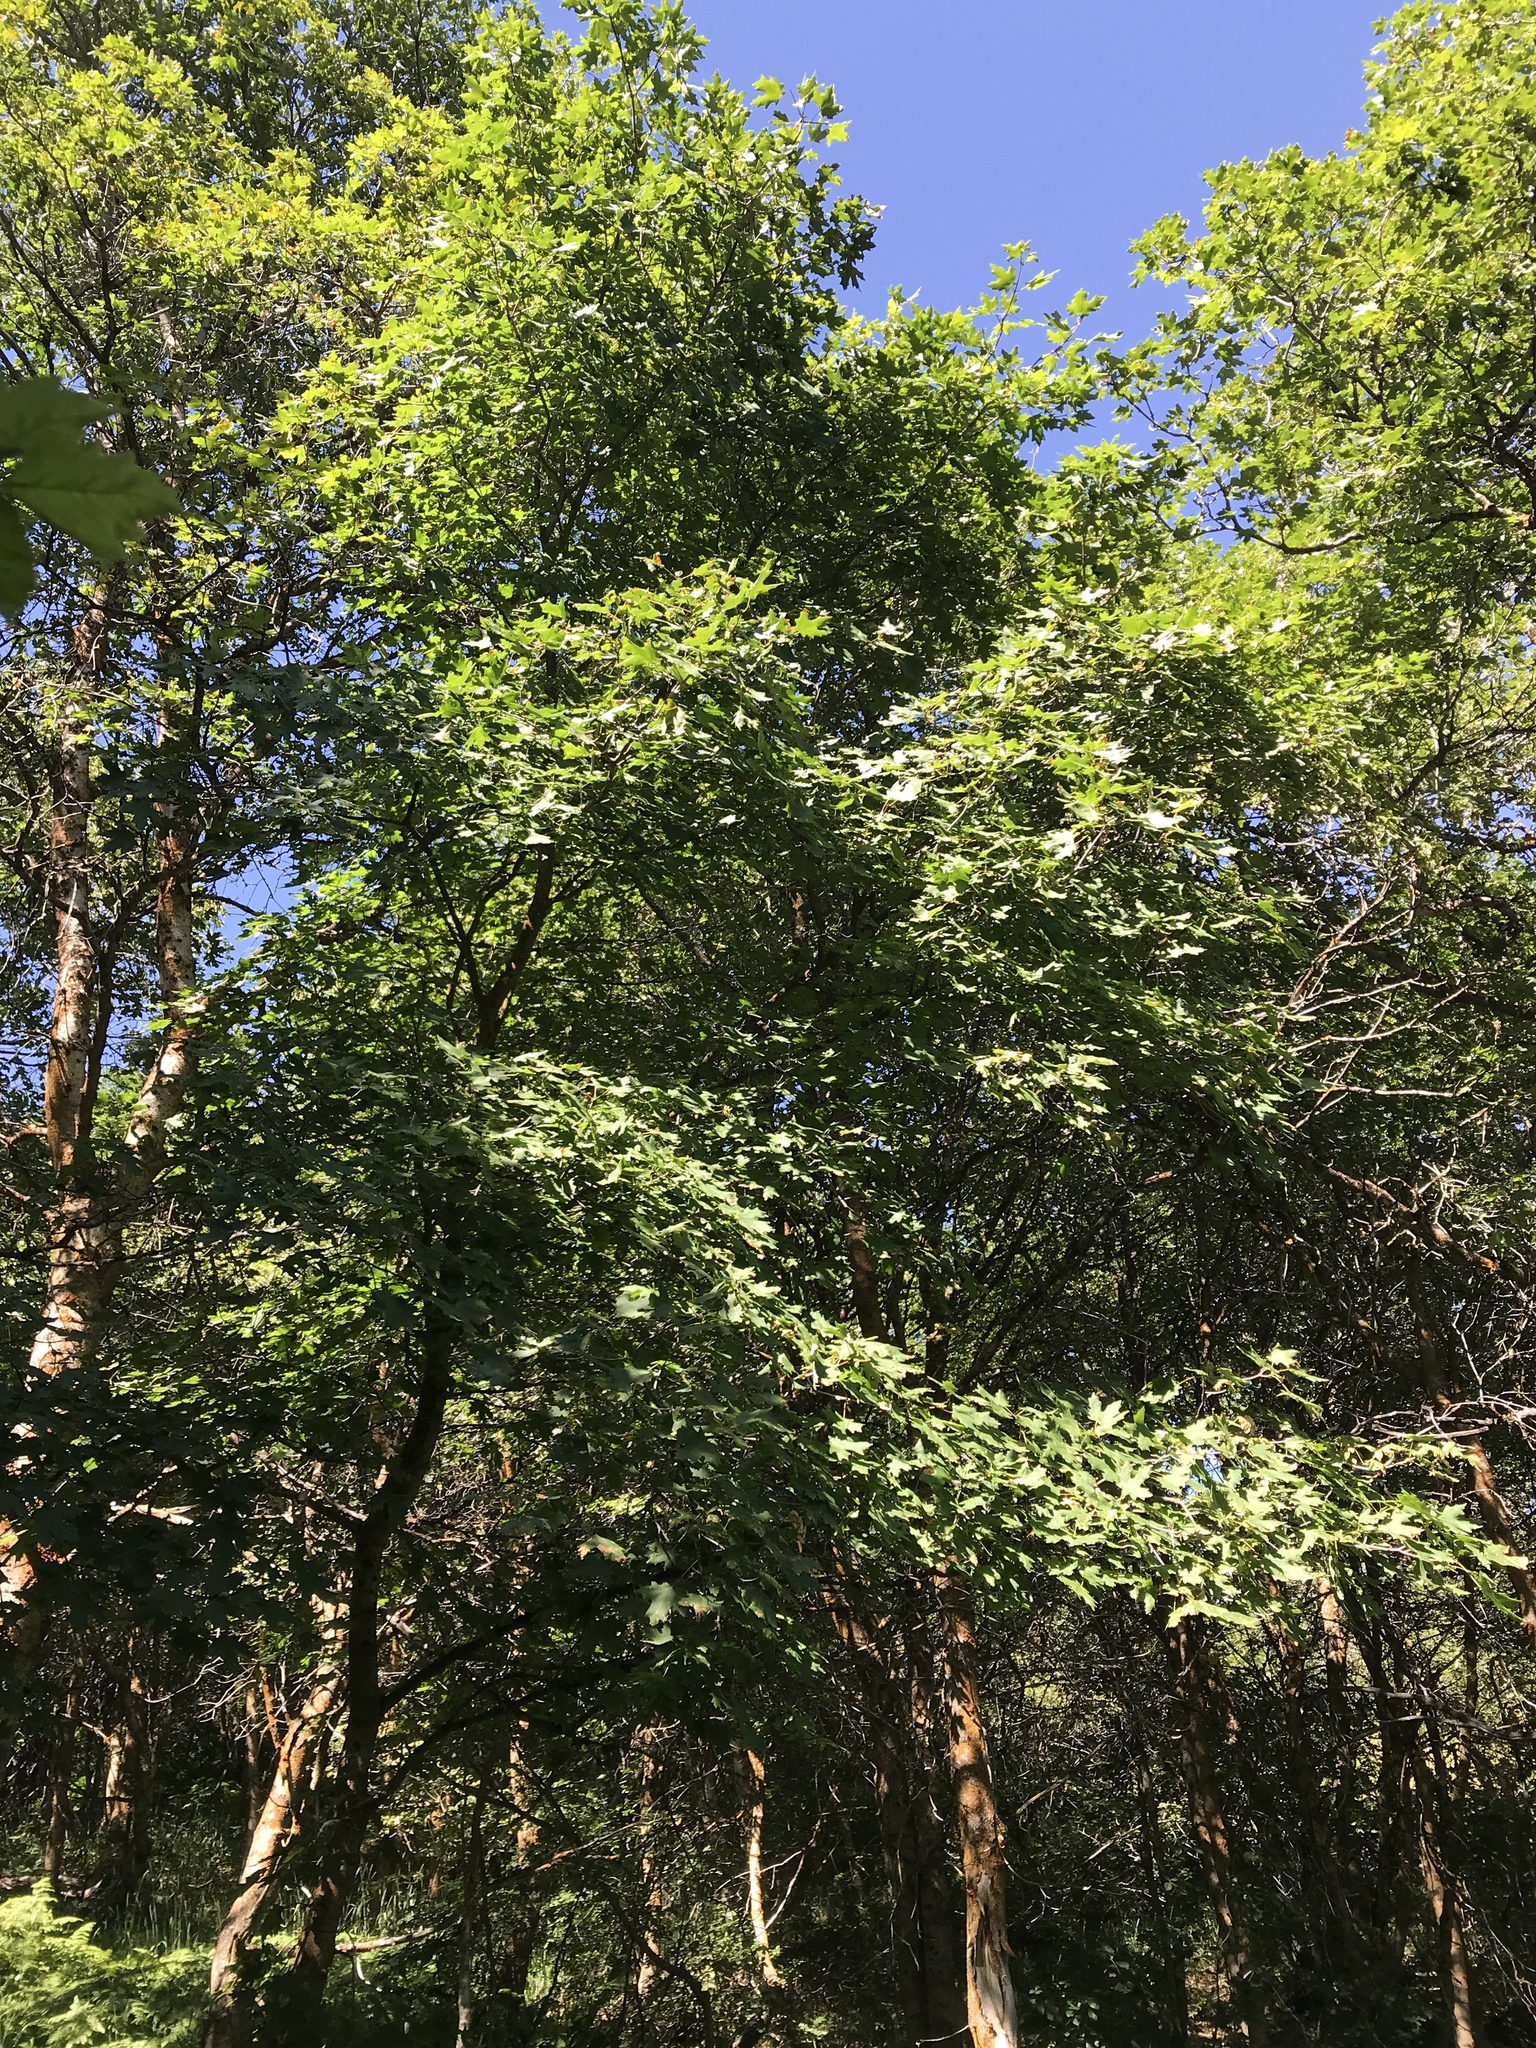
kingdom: Plantae
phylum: Tracheophyta
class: Magnoliopsida
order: Sapindales
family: Sapindaceae
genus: Acer
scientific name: Acer grandidentatum
